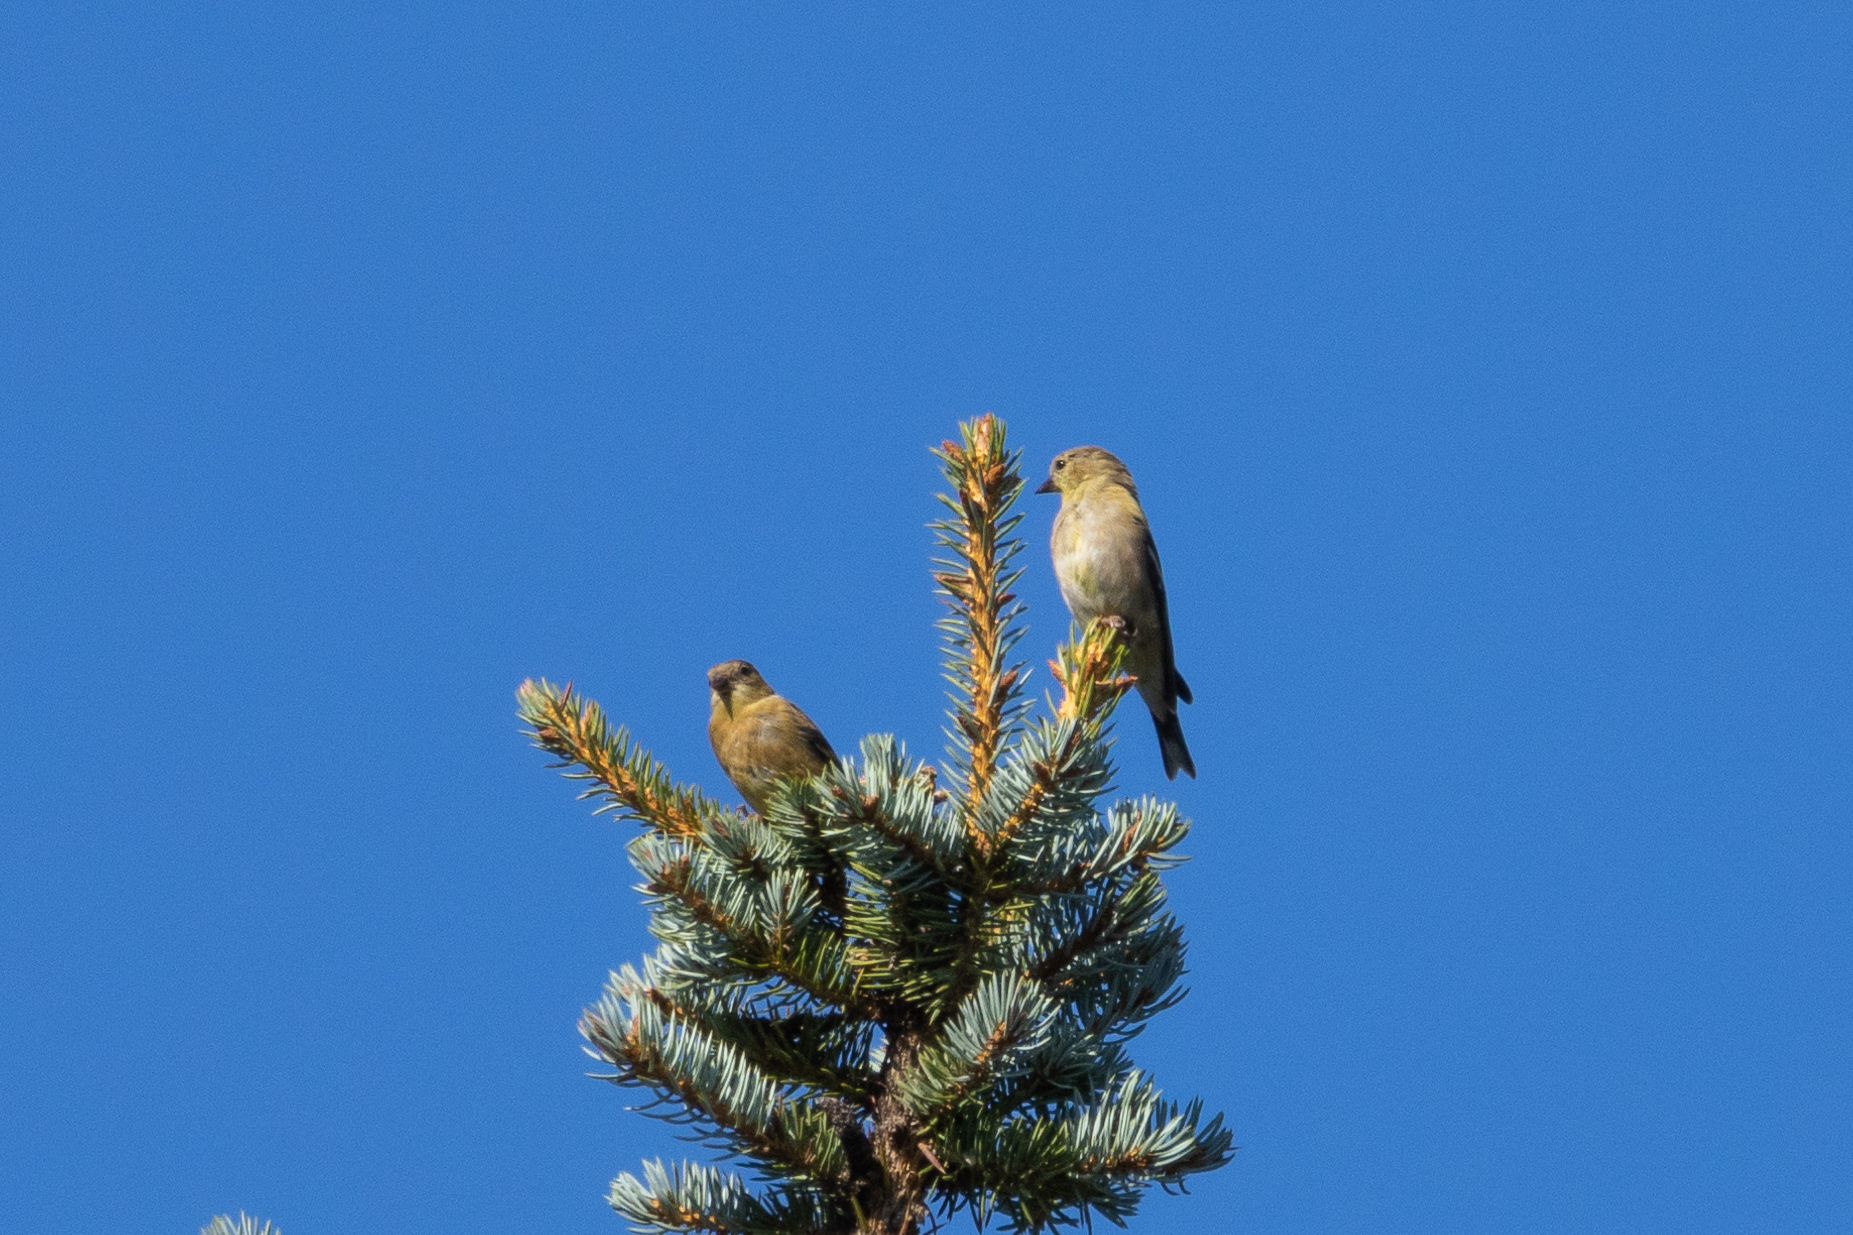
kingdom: Animalia
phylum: Chordata
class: Aves
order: Passeriformes
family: Fringillidae
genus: Spinus
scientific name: Spinus tristis
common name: American goldfinch
